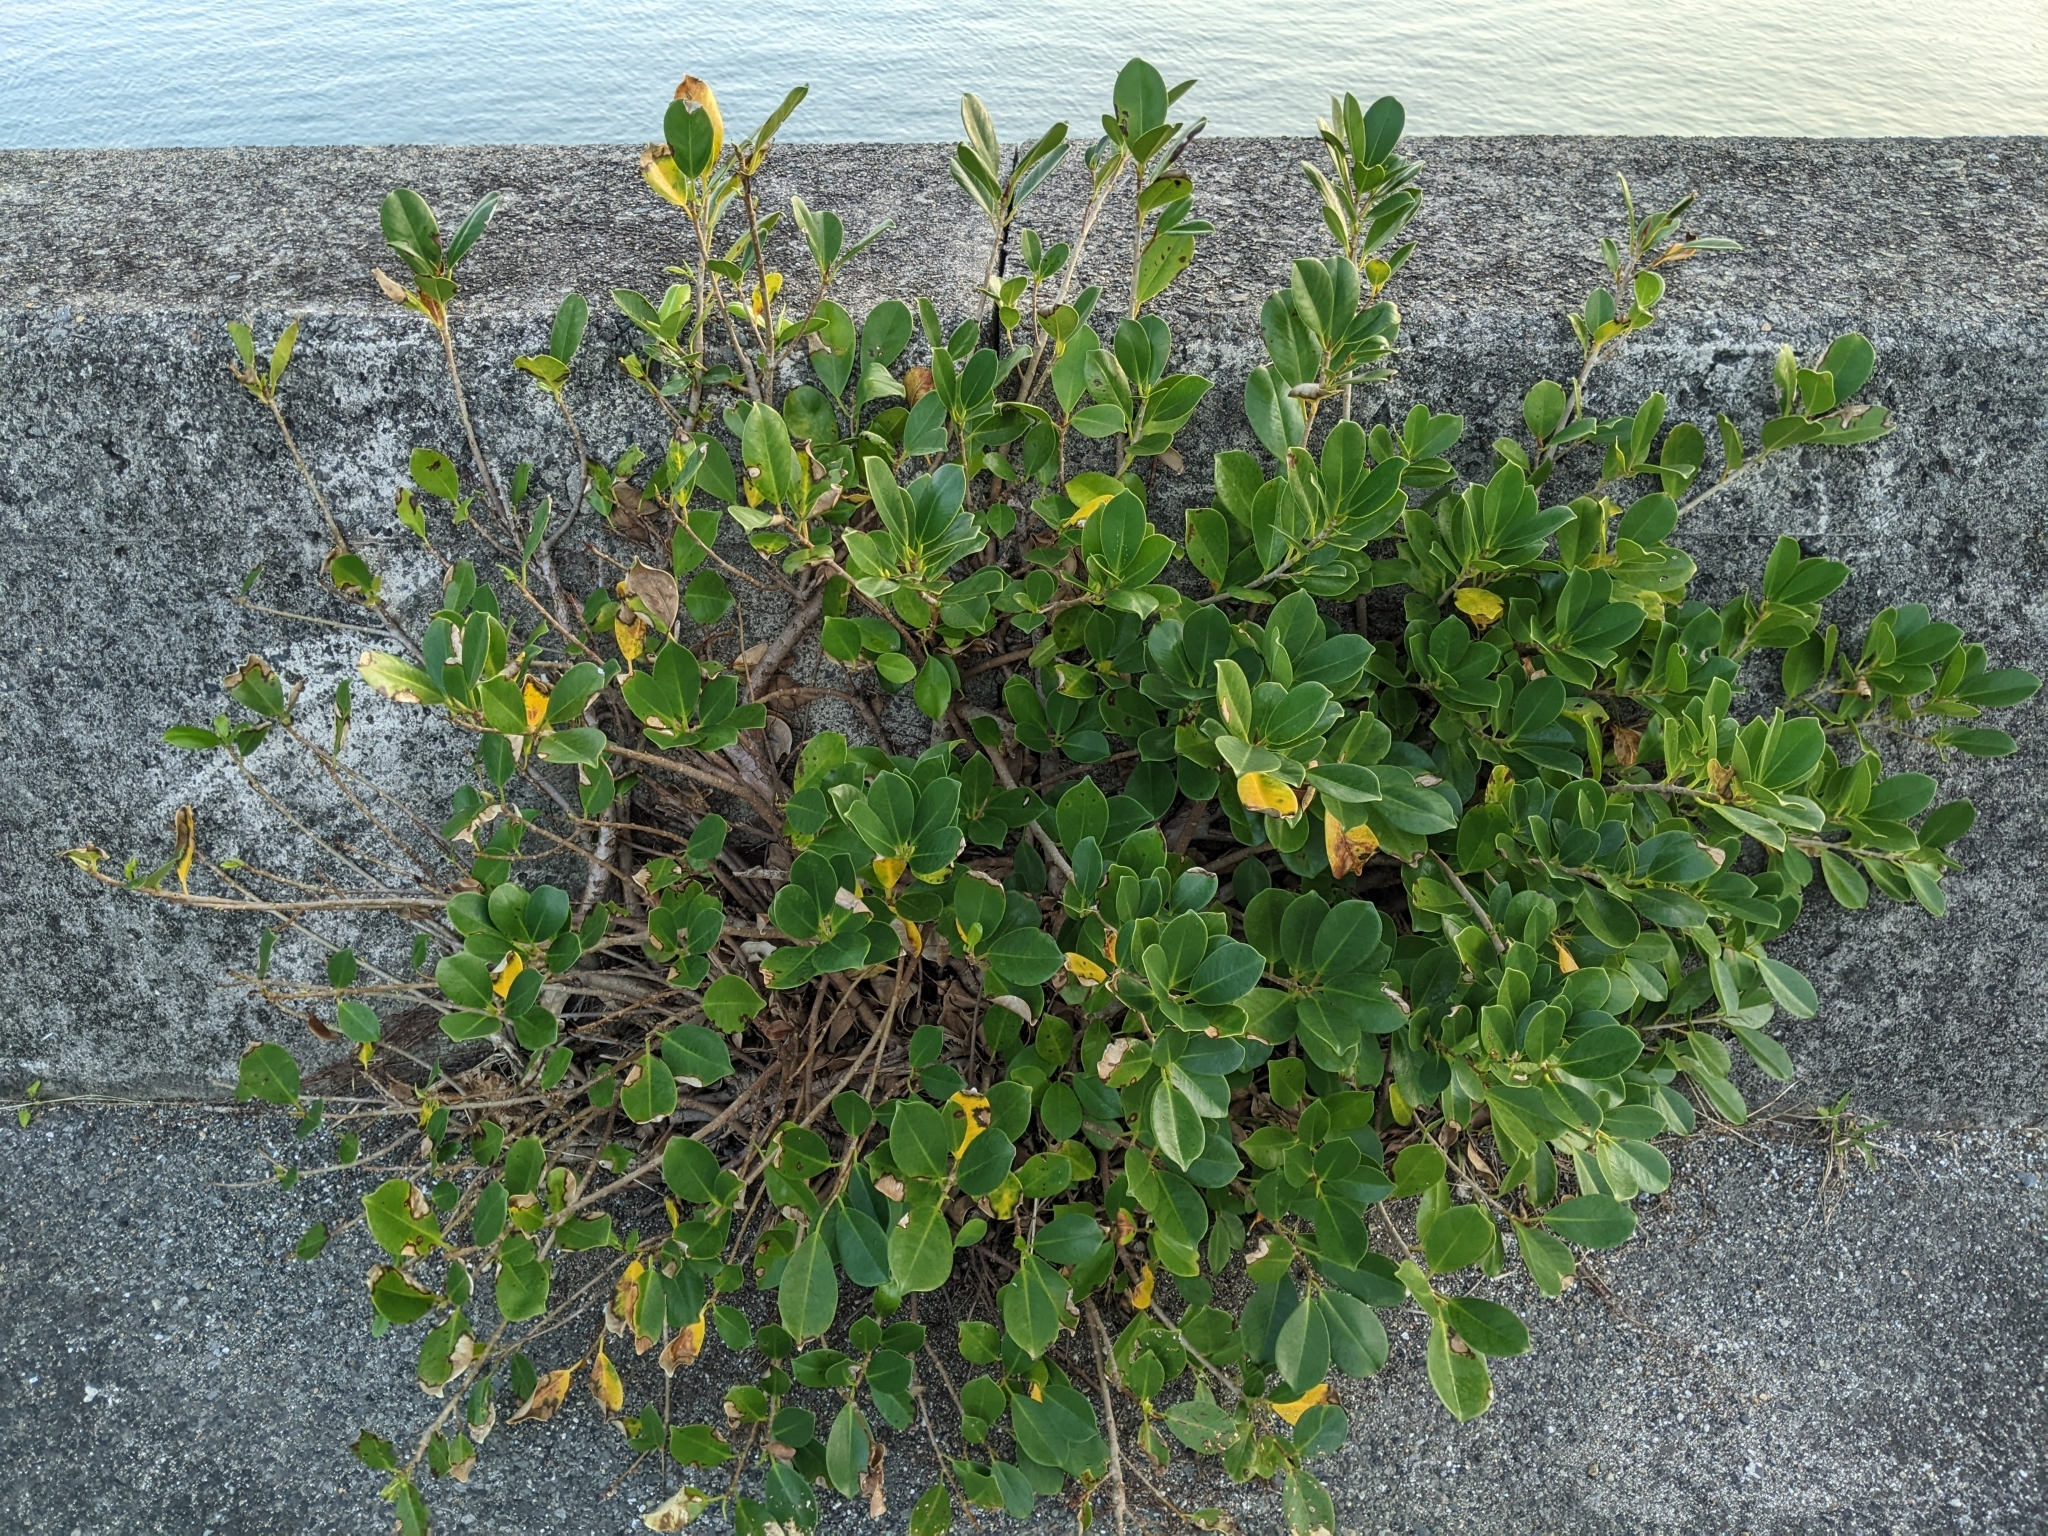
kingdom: Plantae
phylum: Tracheophyta
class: Magnoliopsida
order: Rosales
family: Moraceae
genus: Ficus
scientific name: Ficus microcarpa
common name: Chinese banyan
